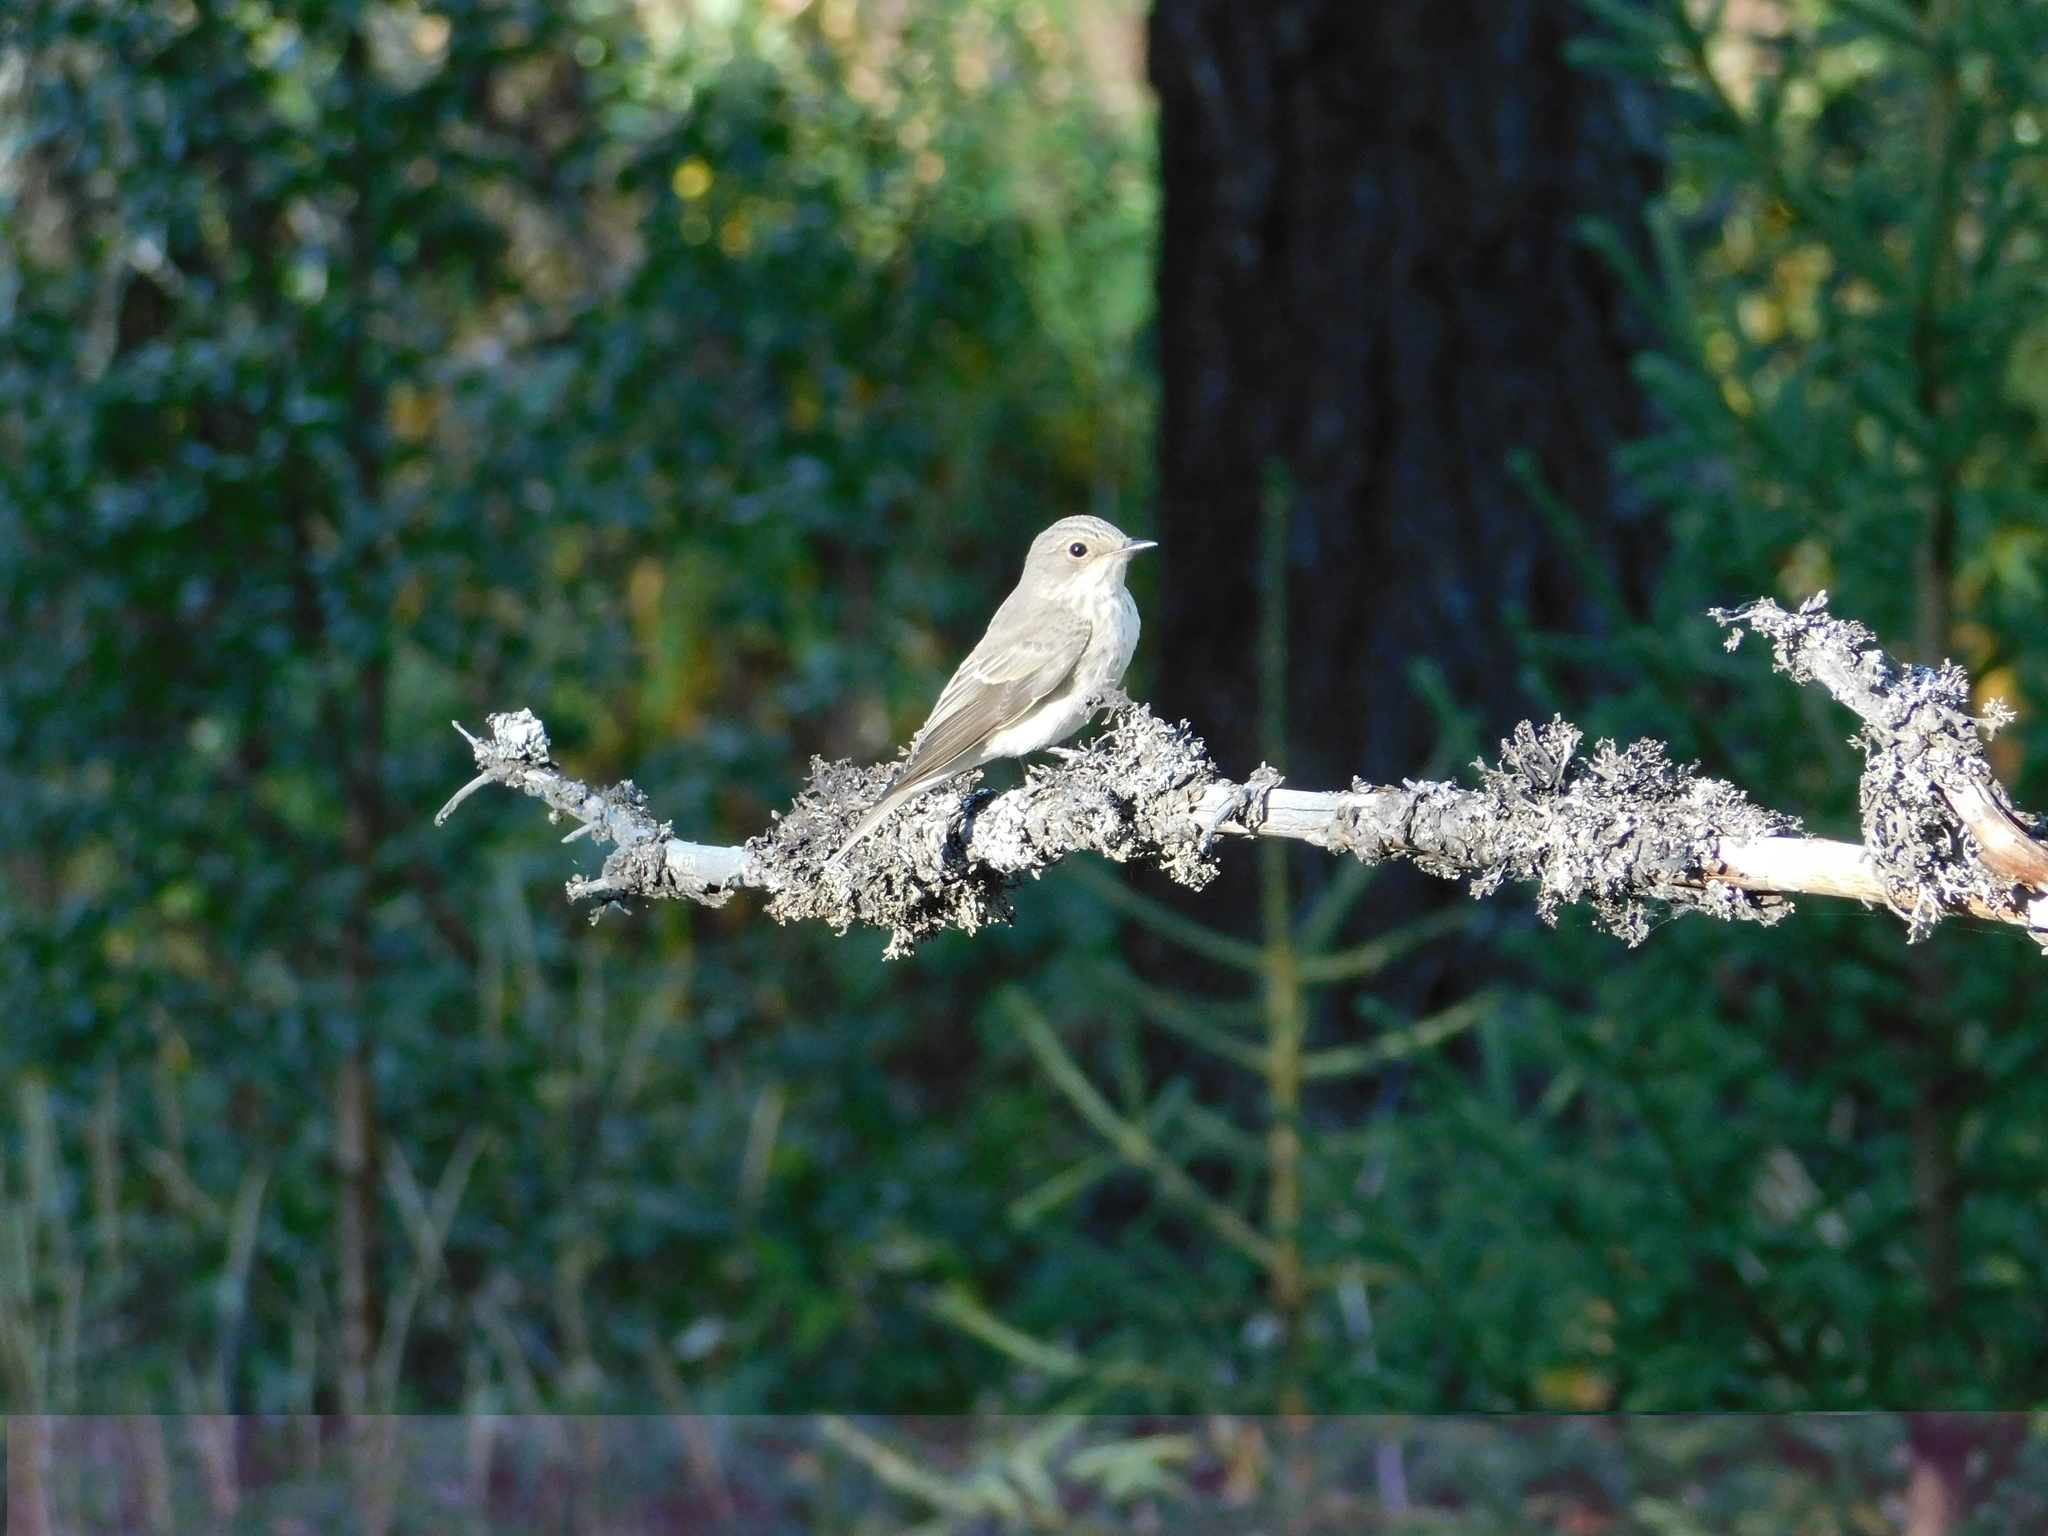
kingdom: Animalia
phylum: Chordata
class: Aves
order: Passeriformes
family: Muscicapidae
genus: Muscicapa
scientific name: Muscicapa striata
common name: Spotted flycatcher
